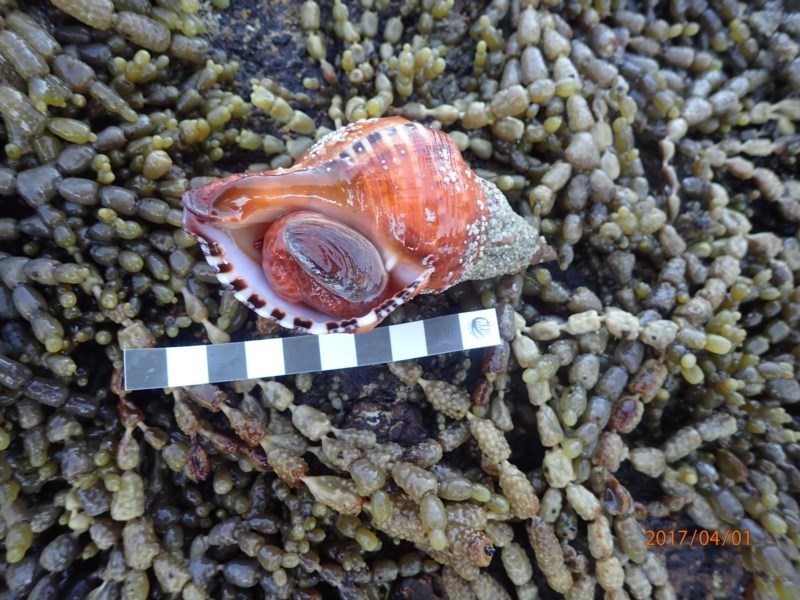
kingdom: Animalia
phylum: Mollusca
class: Gastropoda
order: Littorinimorpha
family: Charoniidae
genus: Charonia
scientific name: Charonia lampas
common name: Knobbed triton
